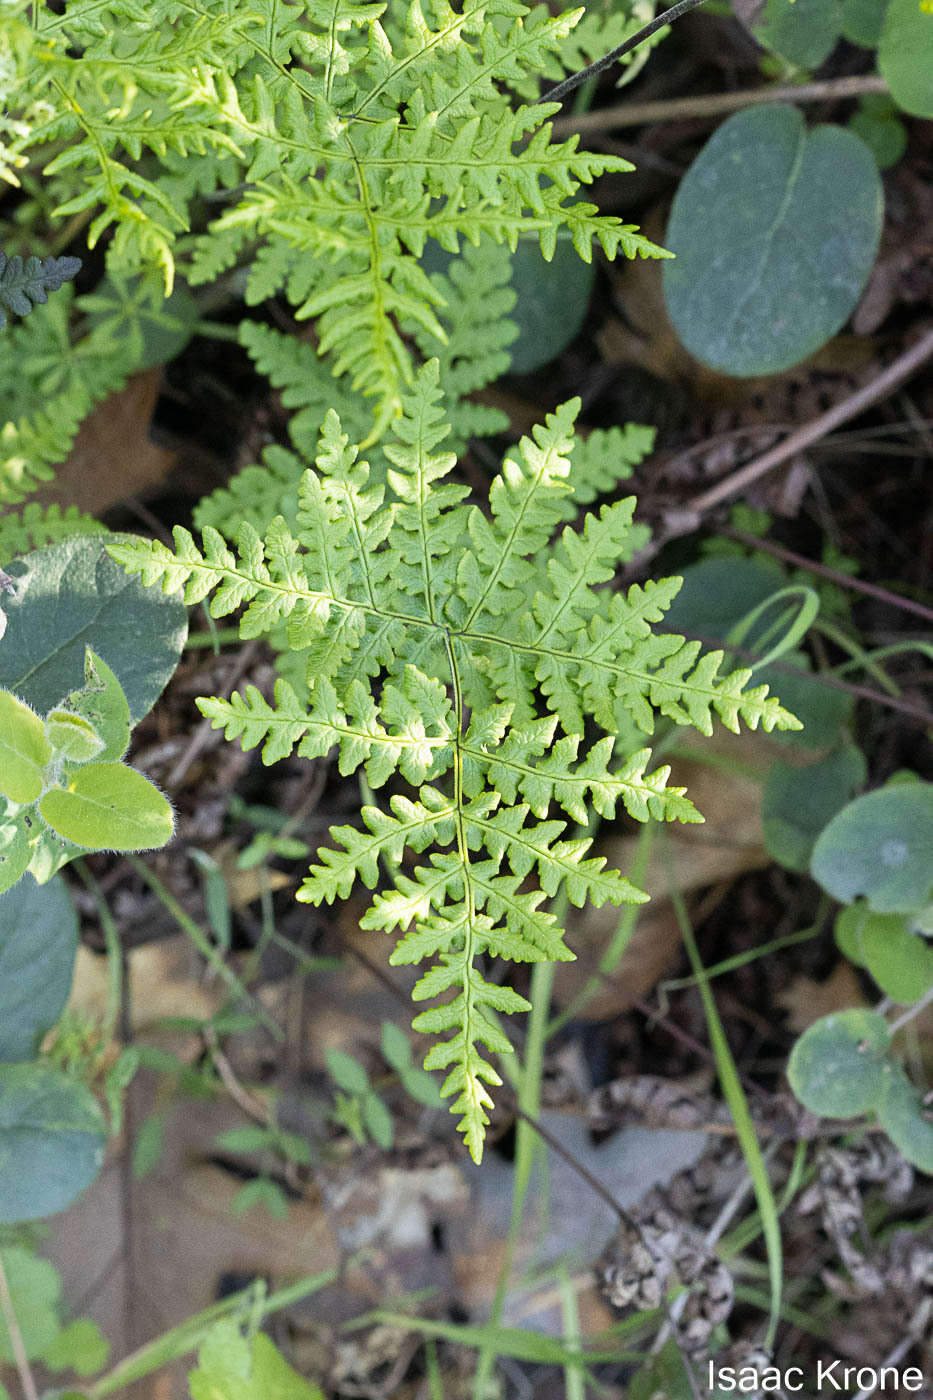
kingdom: Plantae
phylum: Tracheophyta
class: Polypodiopsida
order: Polypodiales
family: Pteridaceae
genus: Pentagramma
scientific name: Pentagramma triangularis
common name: Gold fern
